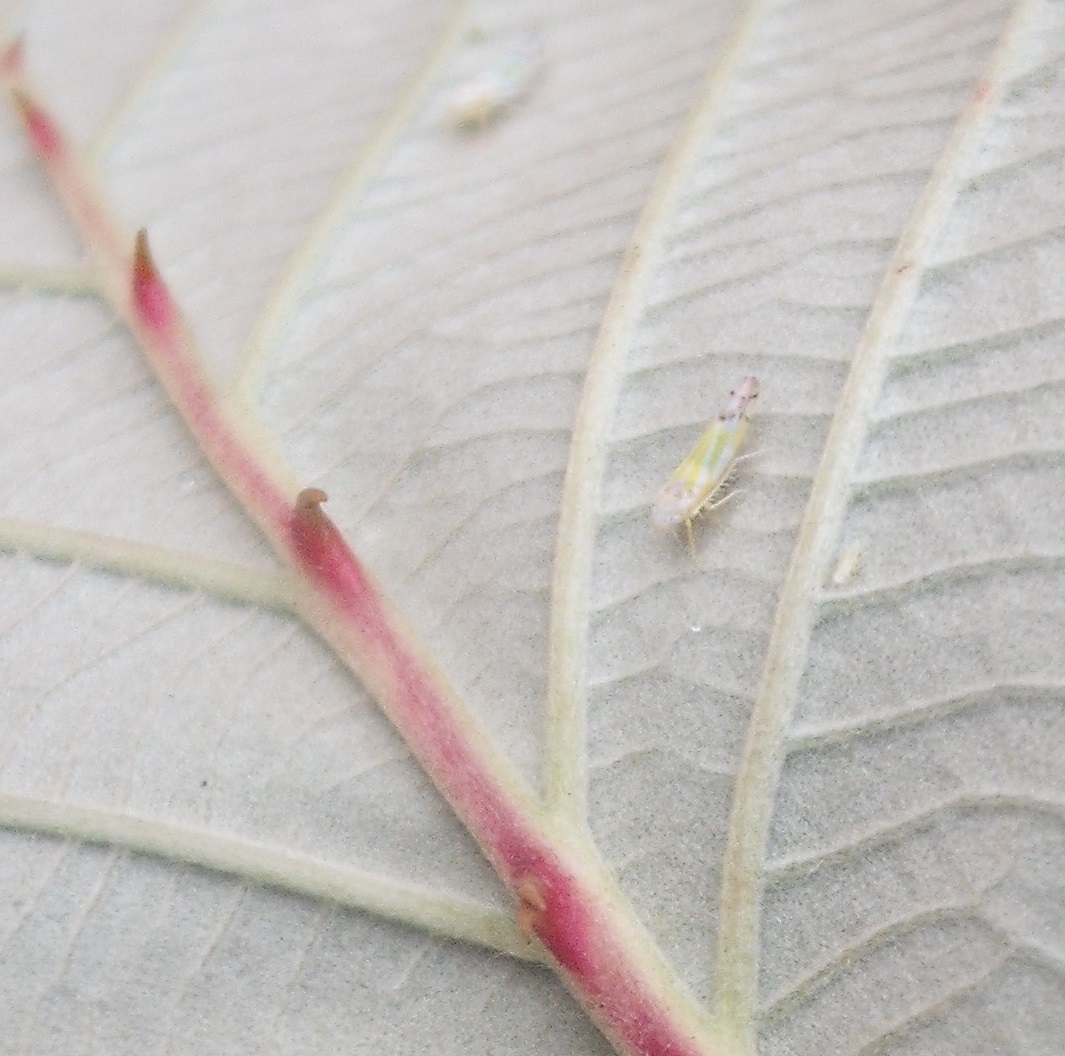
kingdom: Animalia
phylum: Arthropoda
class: Insecta
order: Hemiptera
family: Cicadellidae
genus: Ribautiana
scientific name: Ribautiana tenerrima
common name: Bramble leafhopper
